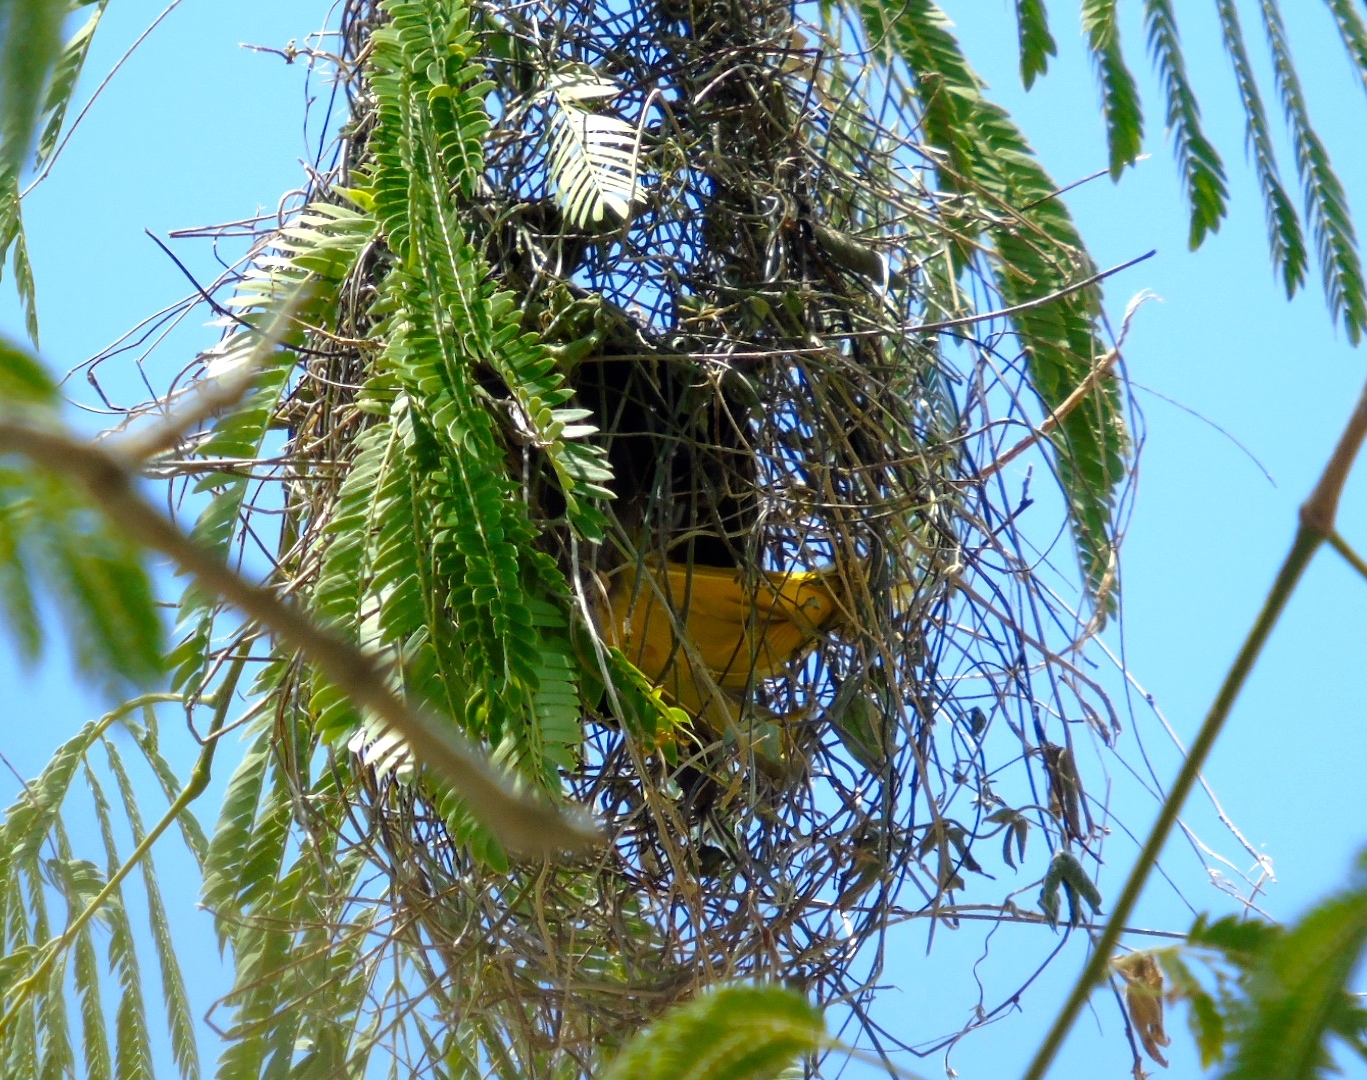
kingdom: Animalia
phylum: Chordata
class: Aves
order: Passeriformes
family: Icteridae
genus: Cacicus
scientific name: Cacicus melanicterus
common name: Yellow-winged cacique
